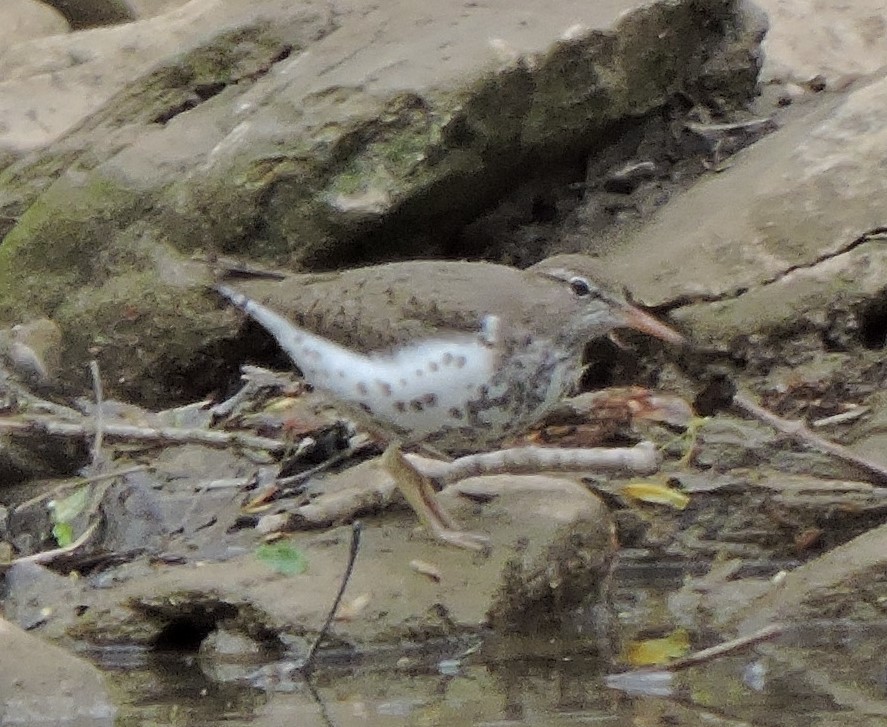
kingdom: Animalia
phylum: Chordata
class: Aves
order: Charadriiformes
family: Scolopacidae
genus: Actitis
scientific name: Actitis macularius
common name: Spotted sandpiper
